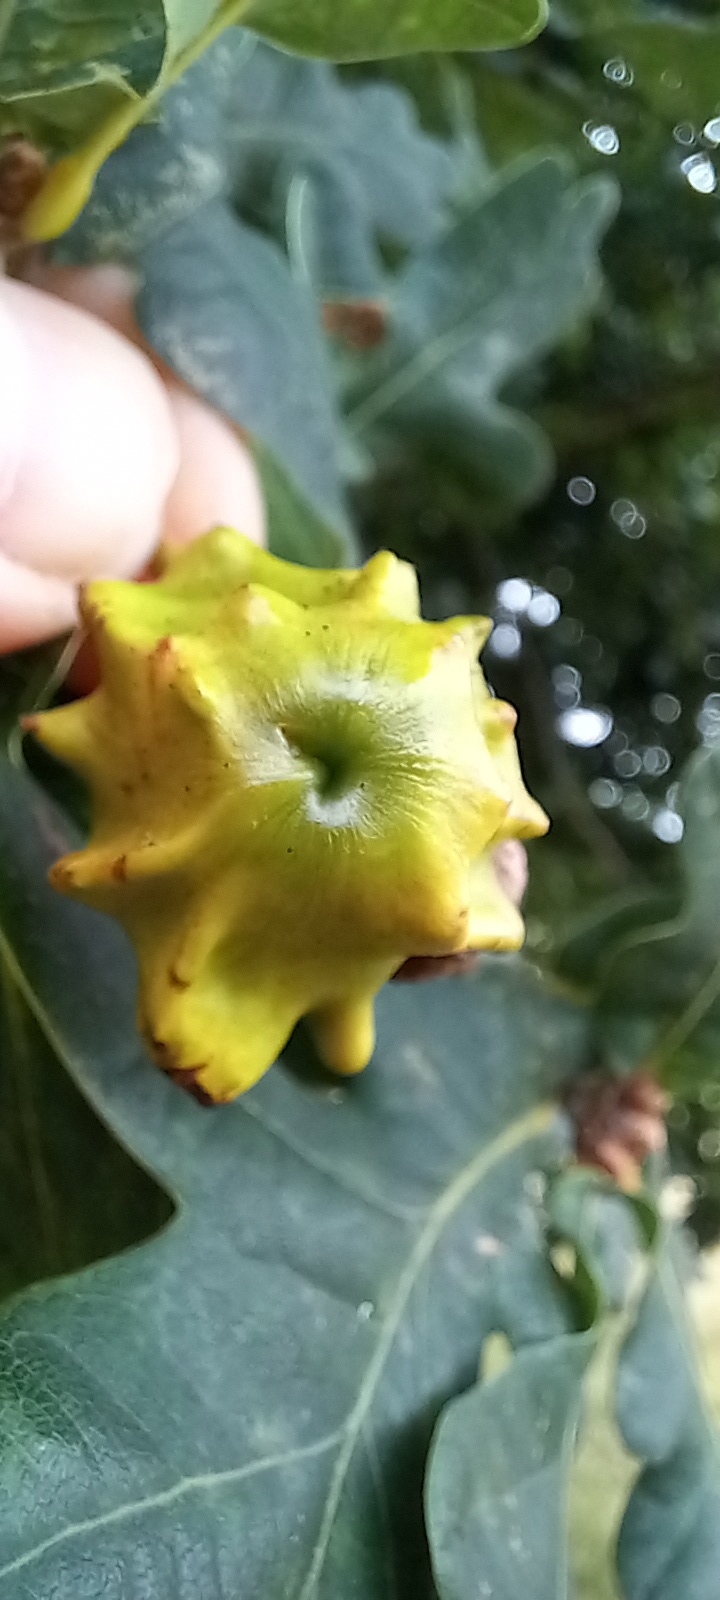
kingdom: Animalia
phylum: Arthropoda
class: Insecta
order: Hymenoptera
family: Cynipidae
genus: Andricus
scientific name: Andricus quercuscalicis
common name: Knopper gall
